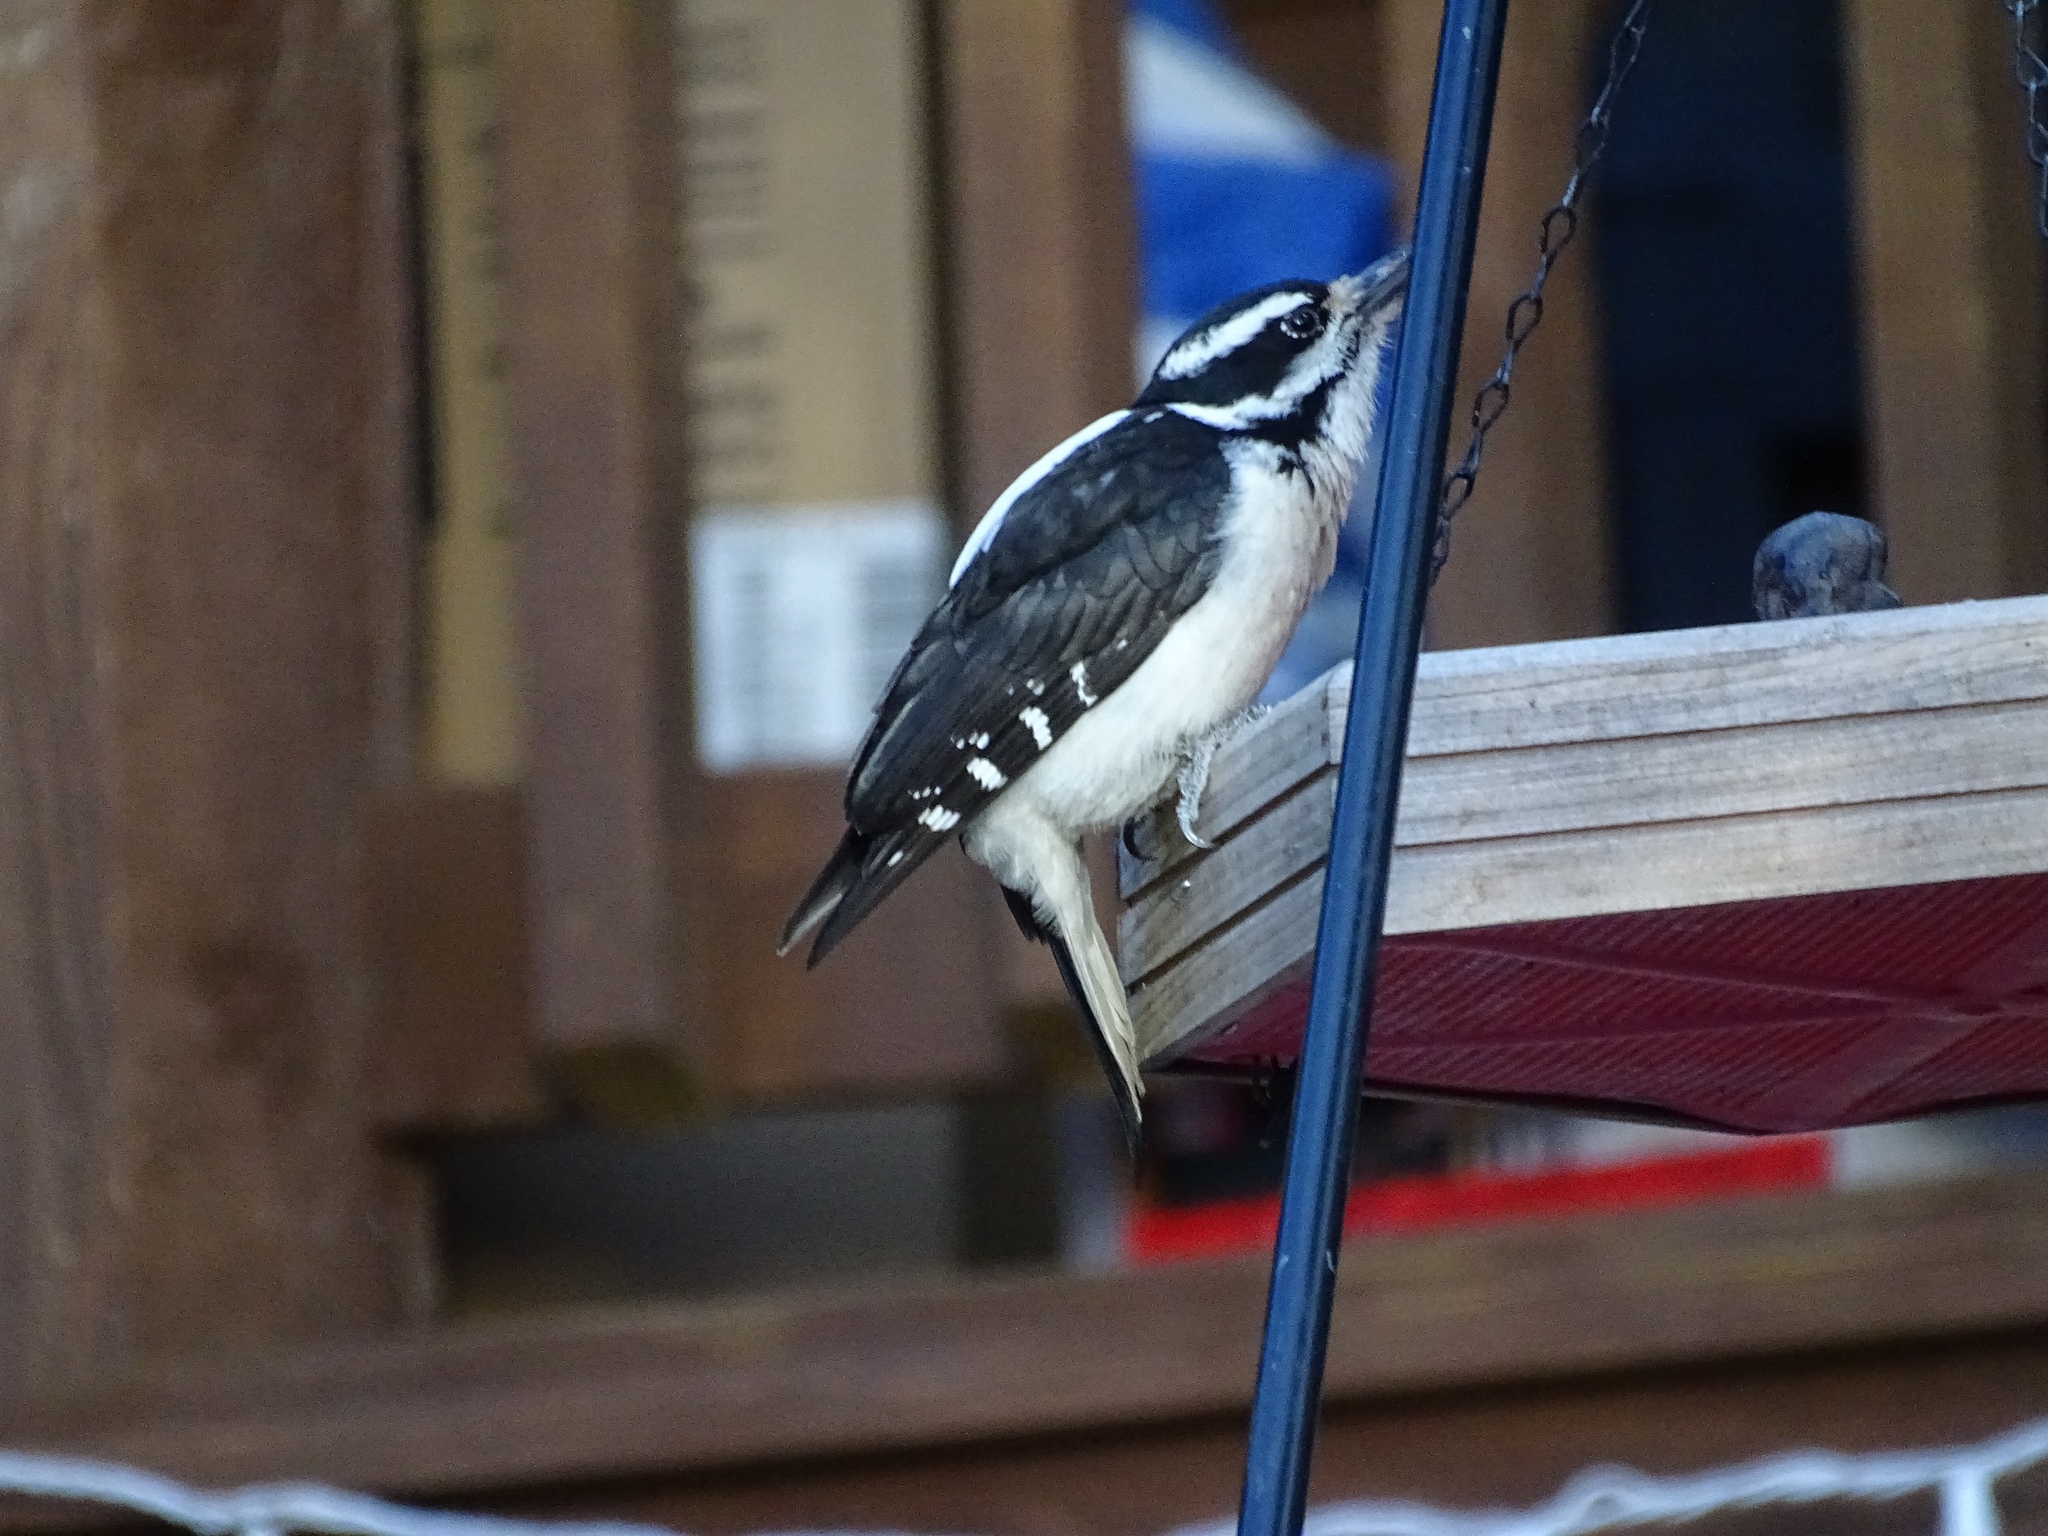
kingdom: Animalia
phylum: Chordata
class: Aves
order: Piciformes
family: Picidae
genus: Leuconotopicus
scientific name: Leuconotopicus villosus
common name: Hairy woodpecker
